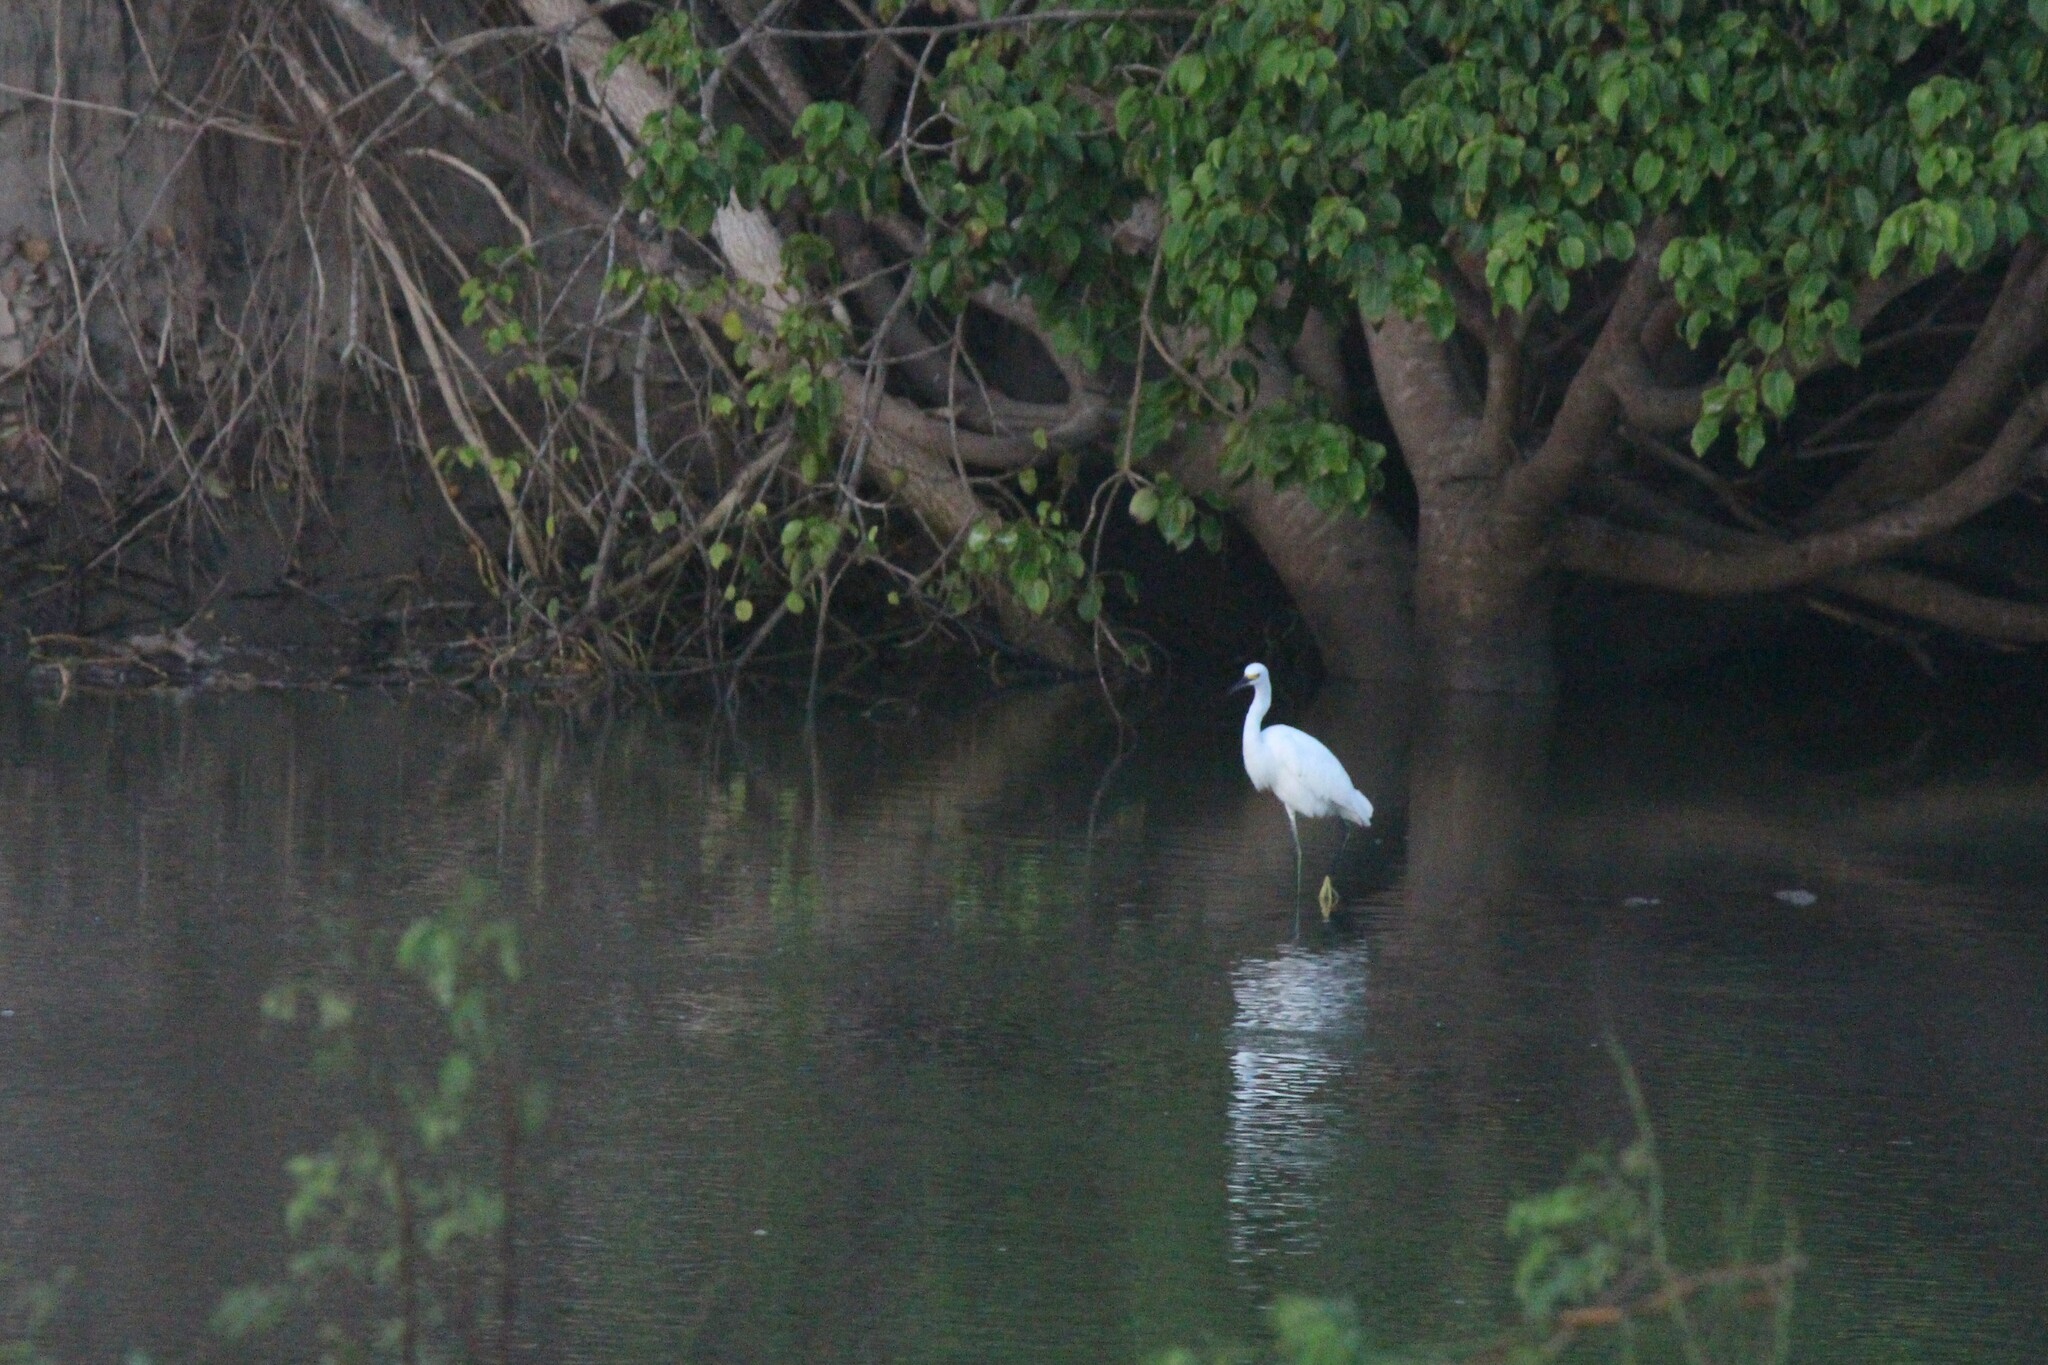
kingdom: Animalia
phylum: Chordata
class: Aves
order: Pelecaniformes
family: Ardeidae
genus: Egretta
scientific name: Egretta thula
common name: Snowy egret
